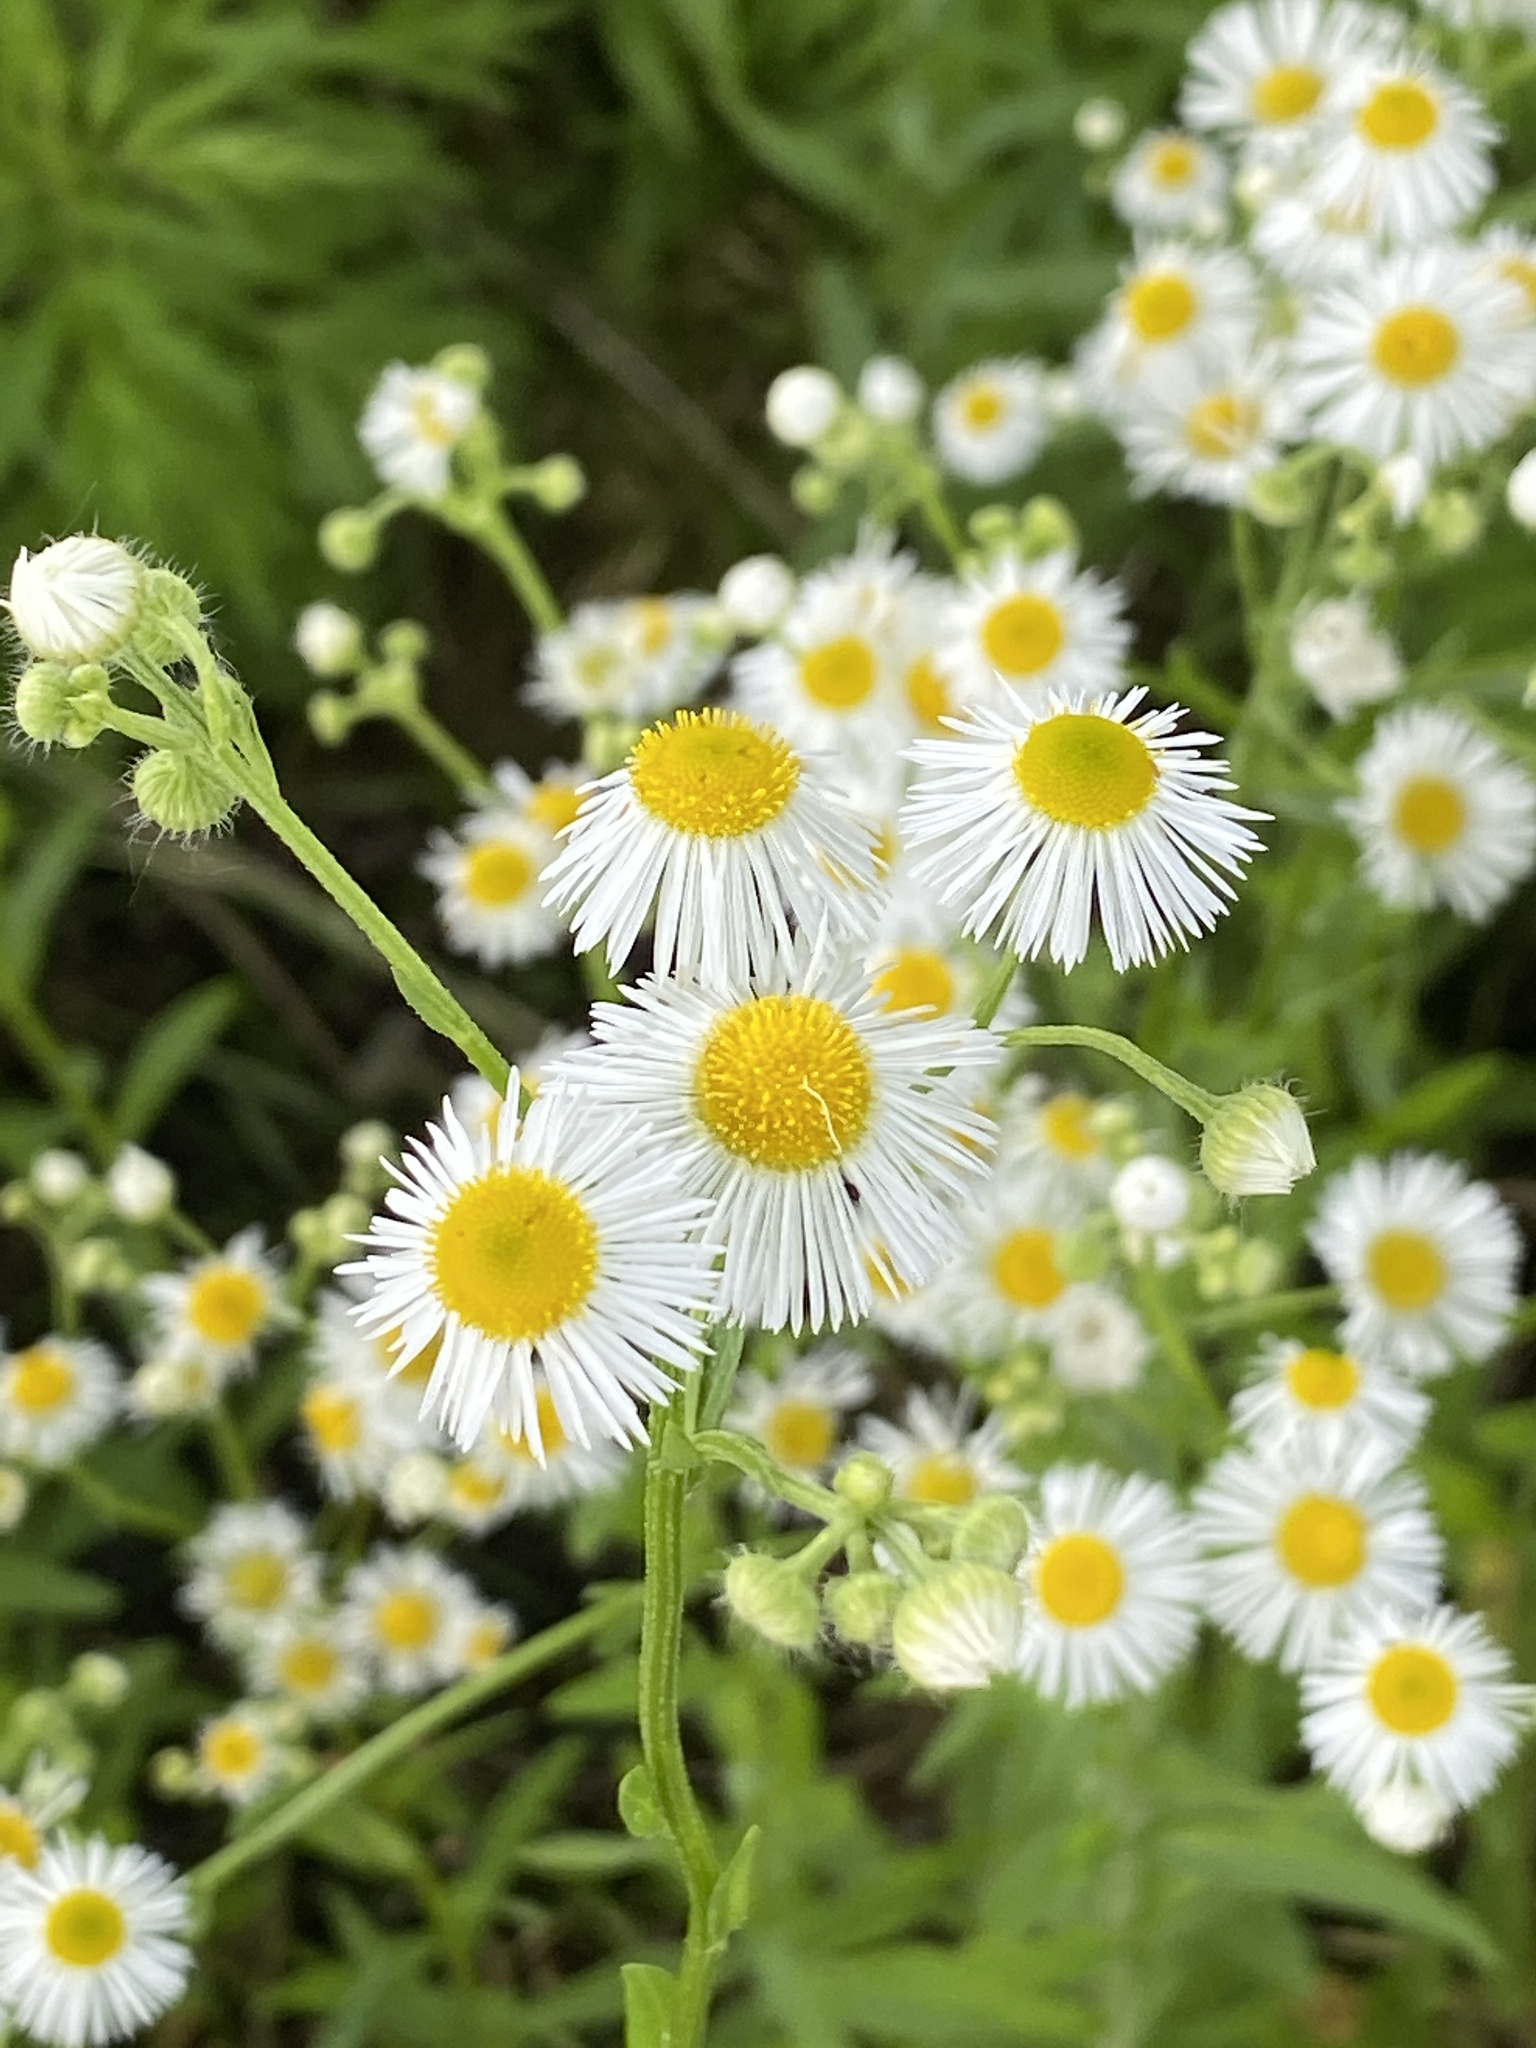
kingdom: Plantae
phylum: Tracheophyta
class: Magnoliopsida
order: Asterales
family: Asteraceae
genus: Erigeron
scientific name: Erigeron annuus
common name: Tall fleabane
